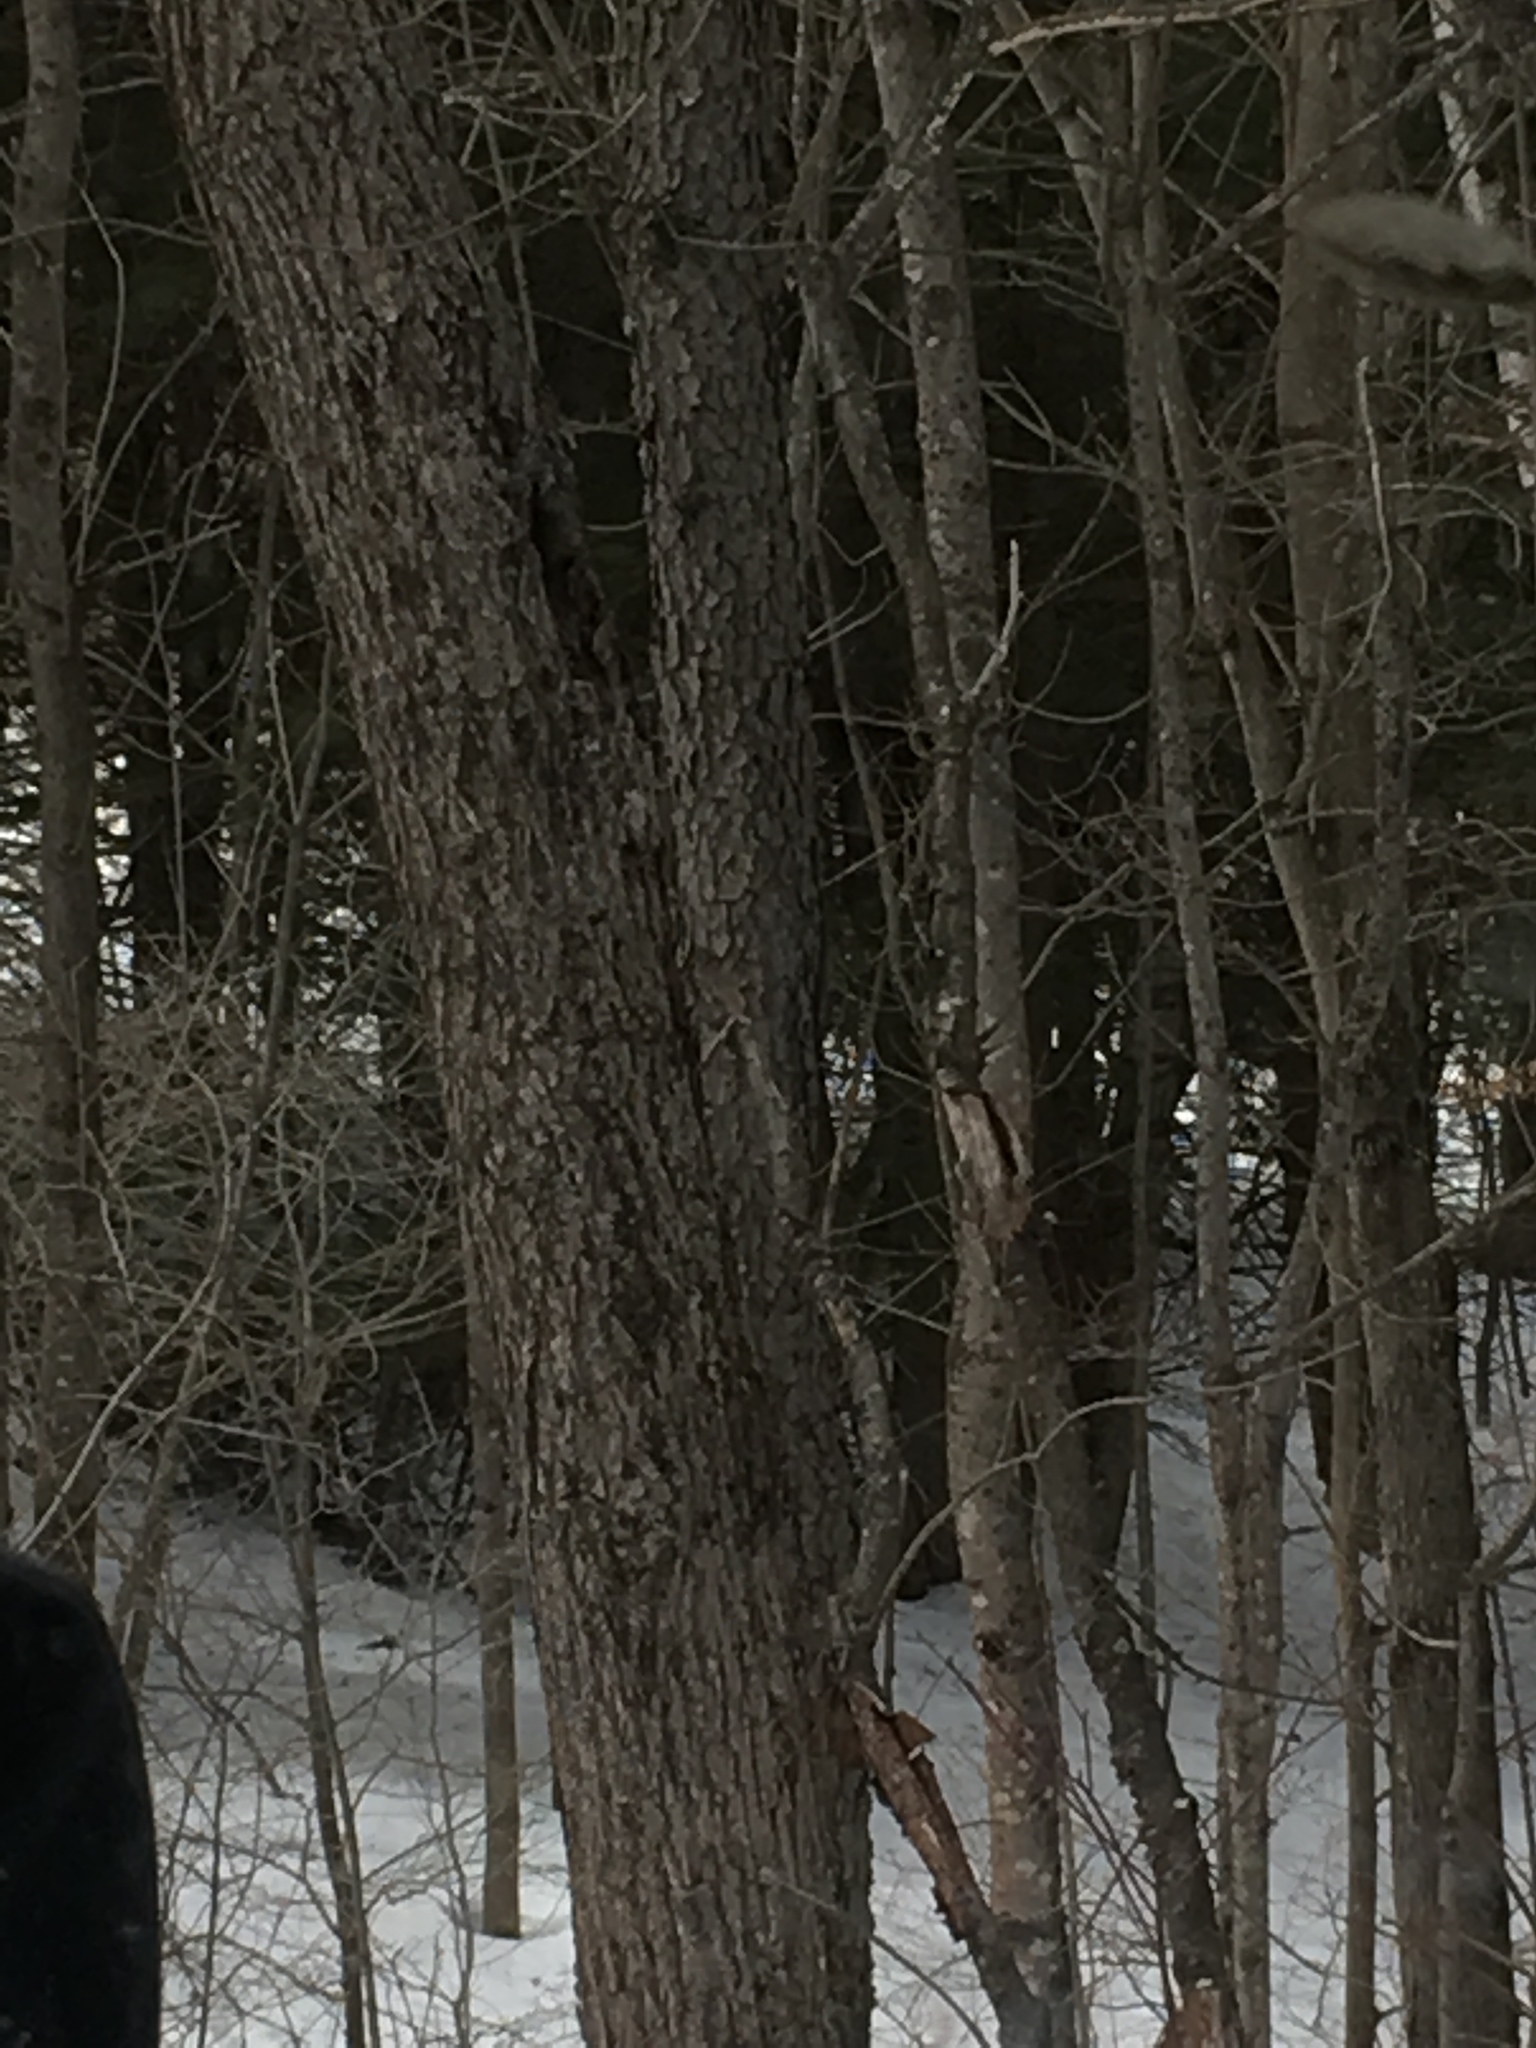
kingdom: Plantae
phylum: Tracheophyta
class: Magnoliopsida
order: Rosales
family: Rosaceae
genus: Prunus
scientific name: Prunus serotina
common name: Black cherry
